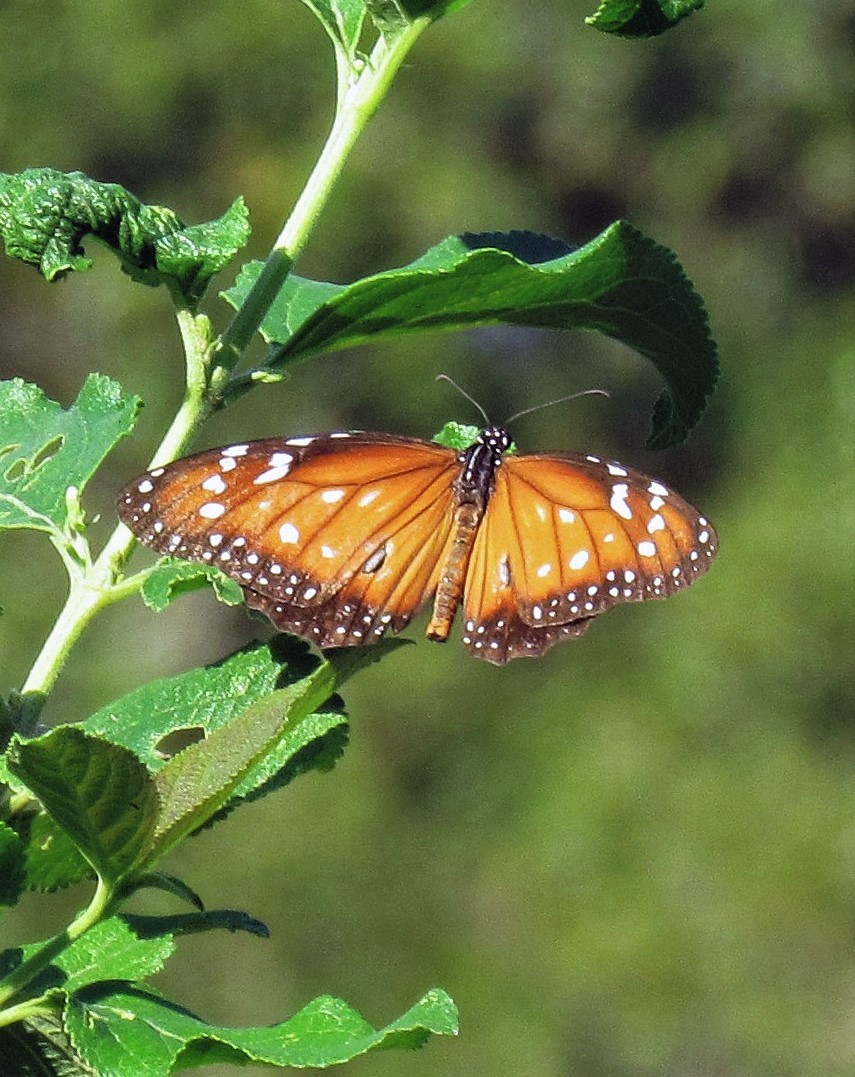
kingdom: Animalia
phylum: Arthropoda
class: Insecta
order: Lepidoptera
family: Nymphalidae
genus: Danaus
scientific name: Danaus eresimus
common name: Soldier
